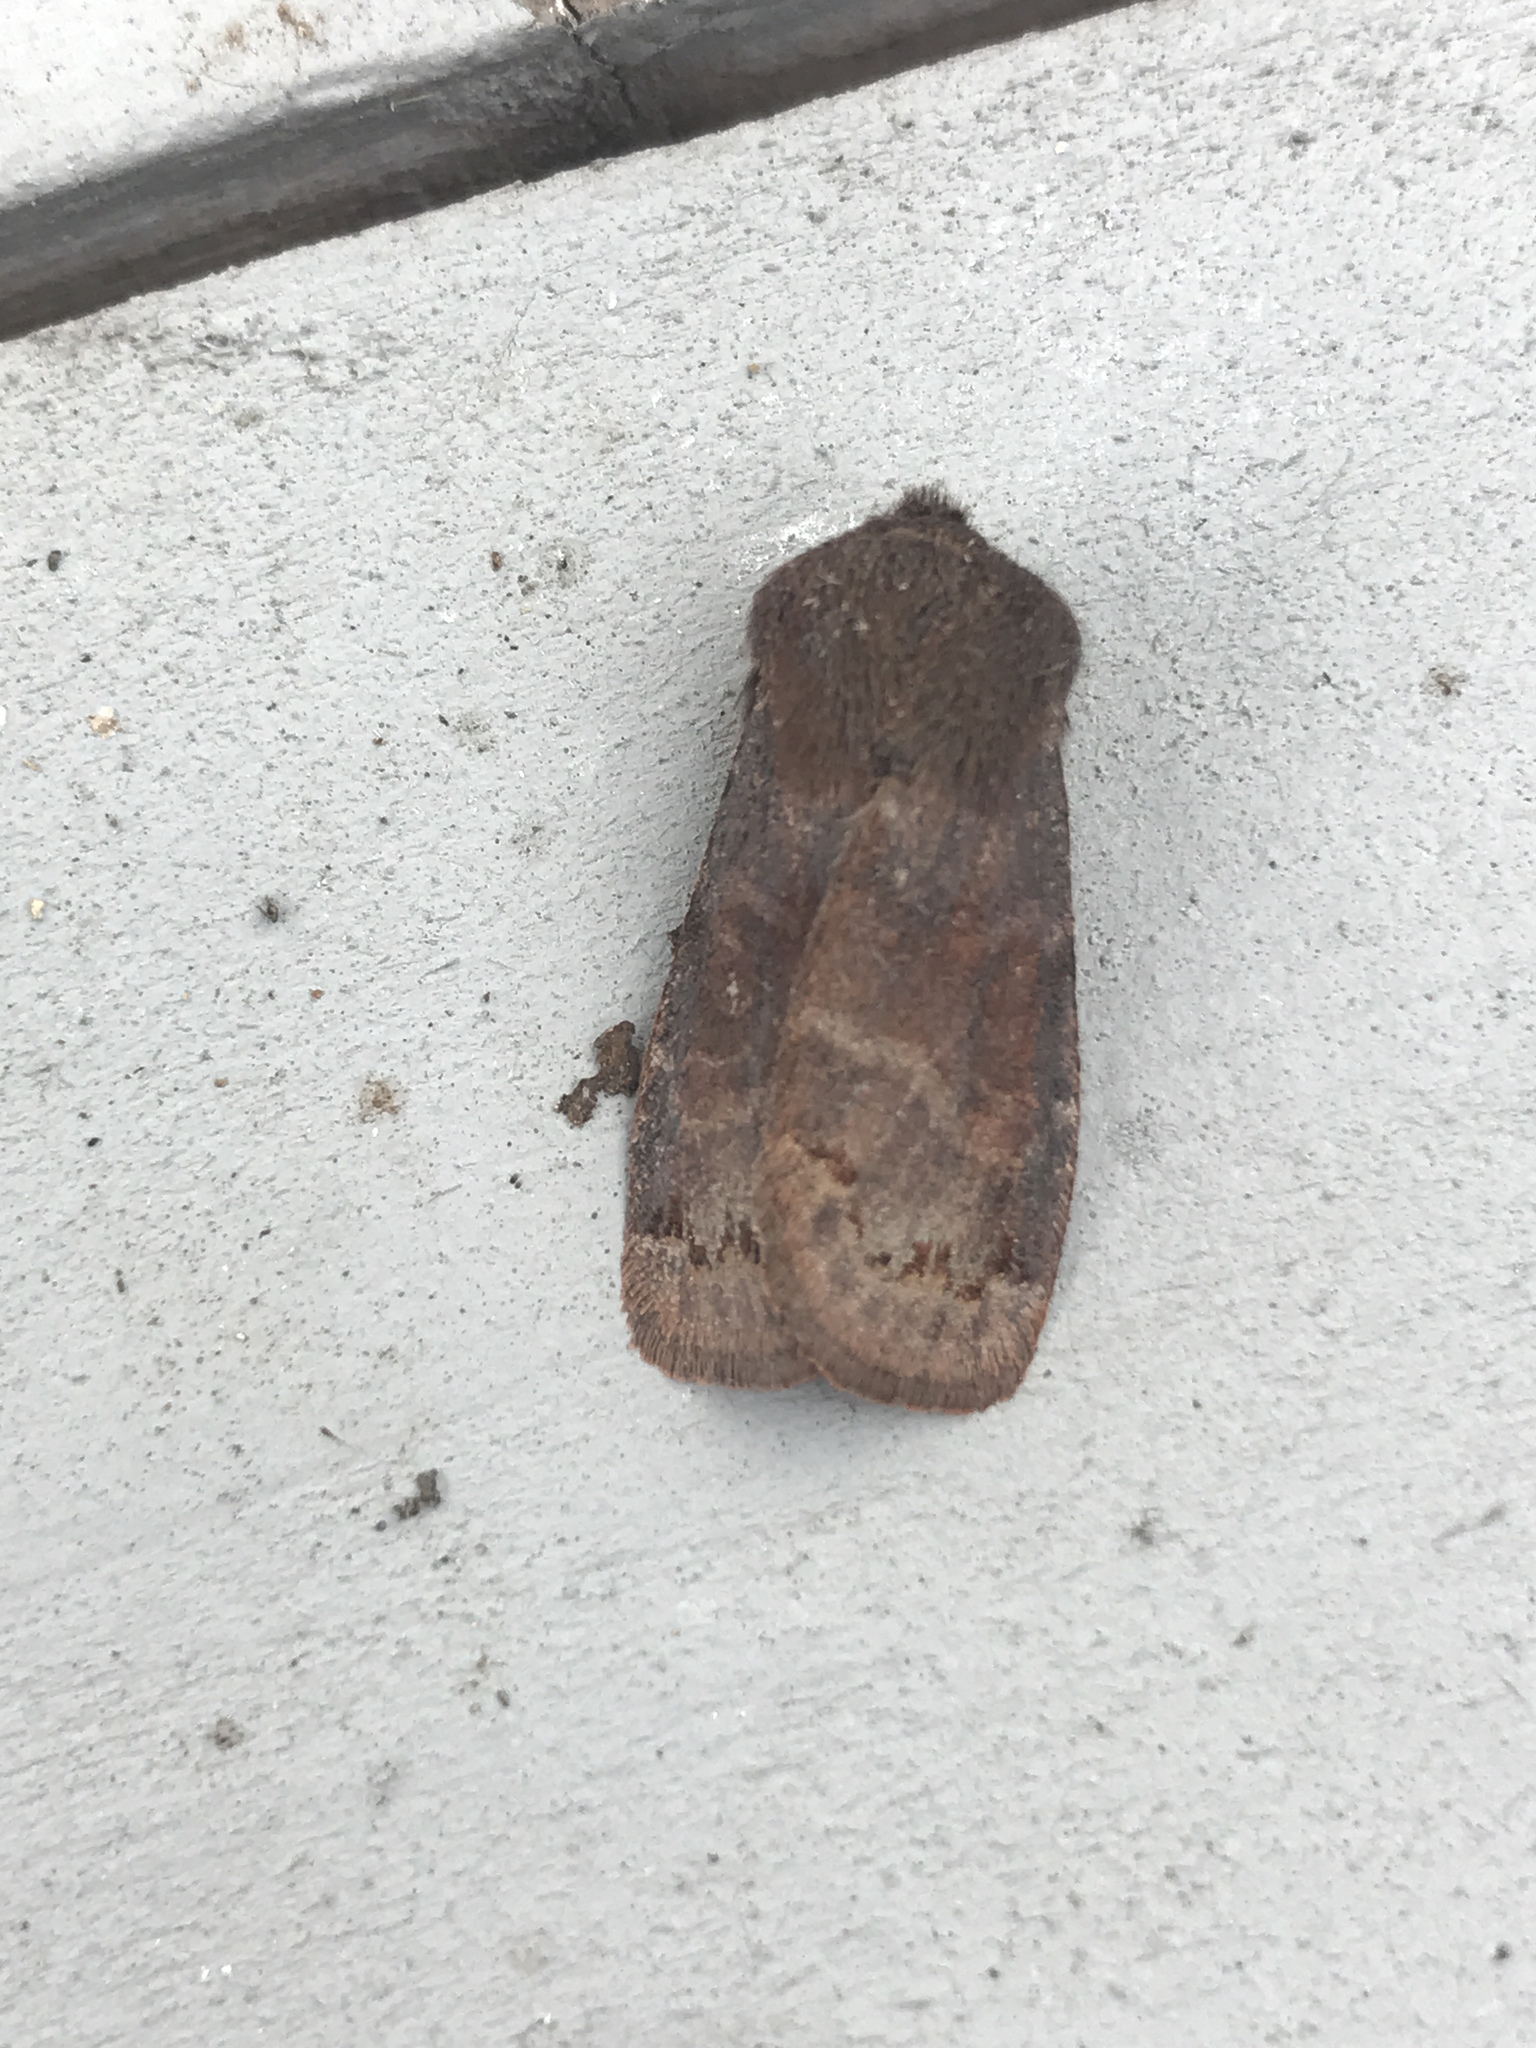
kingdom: Animalia
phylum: Arthropoda
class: Insecta
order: Lepidoptera
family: Noctuidae
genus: Homoglaea
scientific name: Homoglaea hircina
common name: Goat sallow
